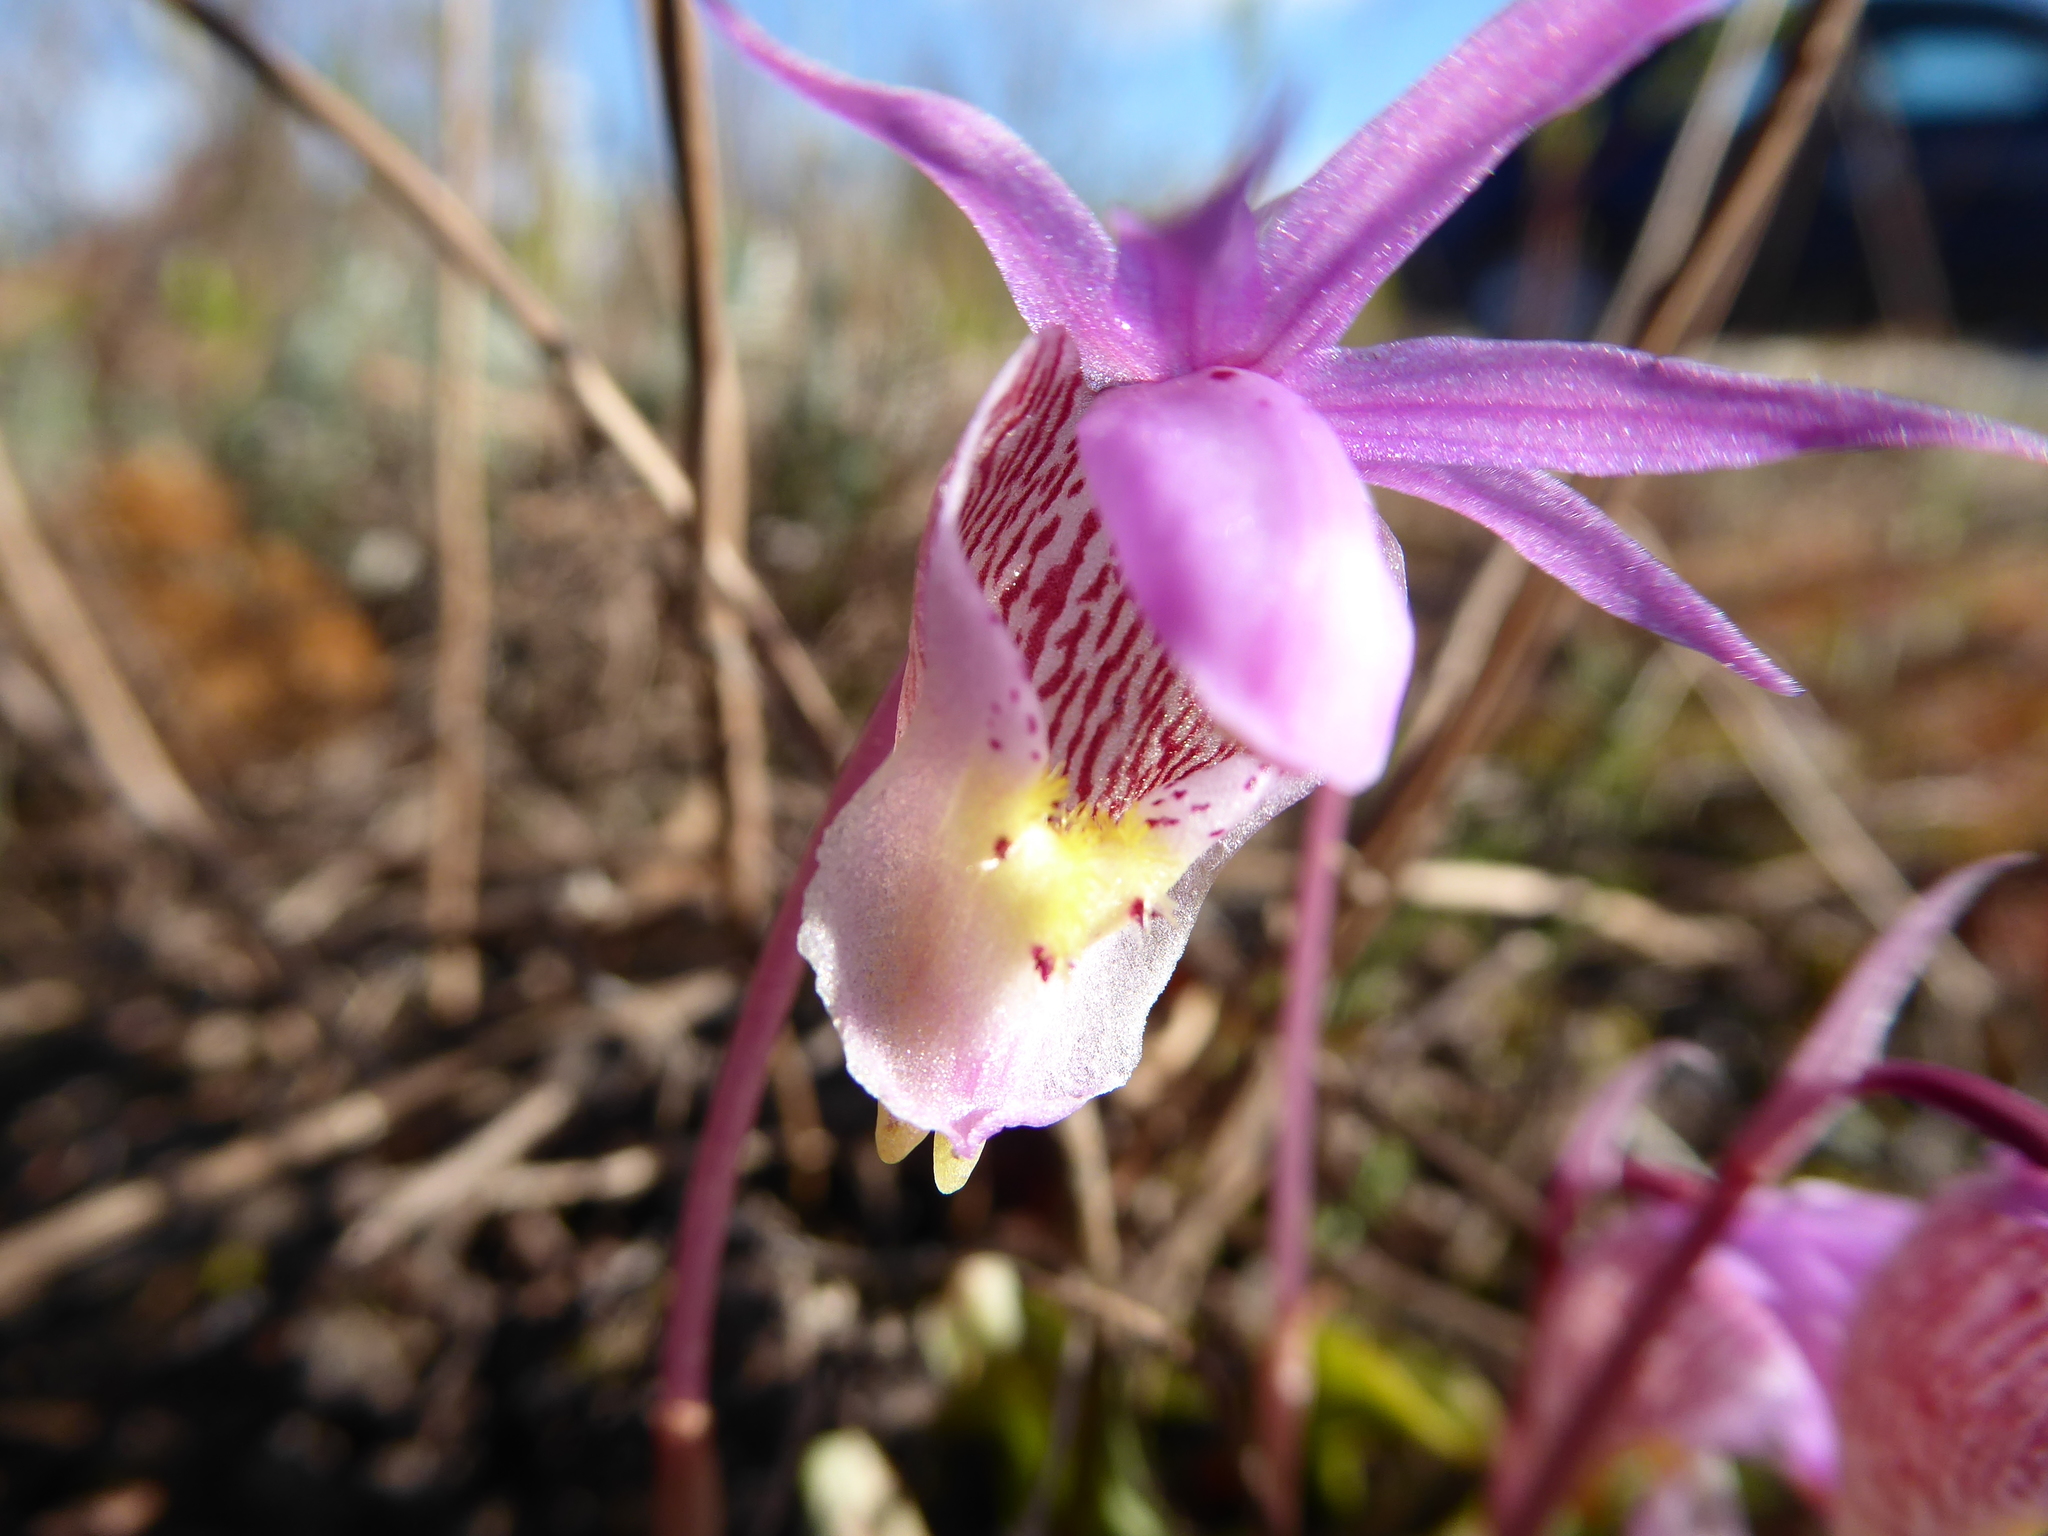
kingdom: Plantae
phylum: Tracheophyta
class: Liliopsida
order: Asparagales
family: Orchidaceae
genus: Calypso
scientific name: Calypso bulbosa
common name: Calypso
